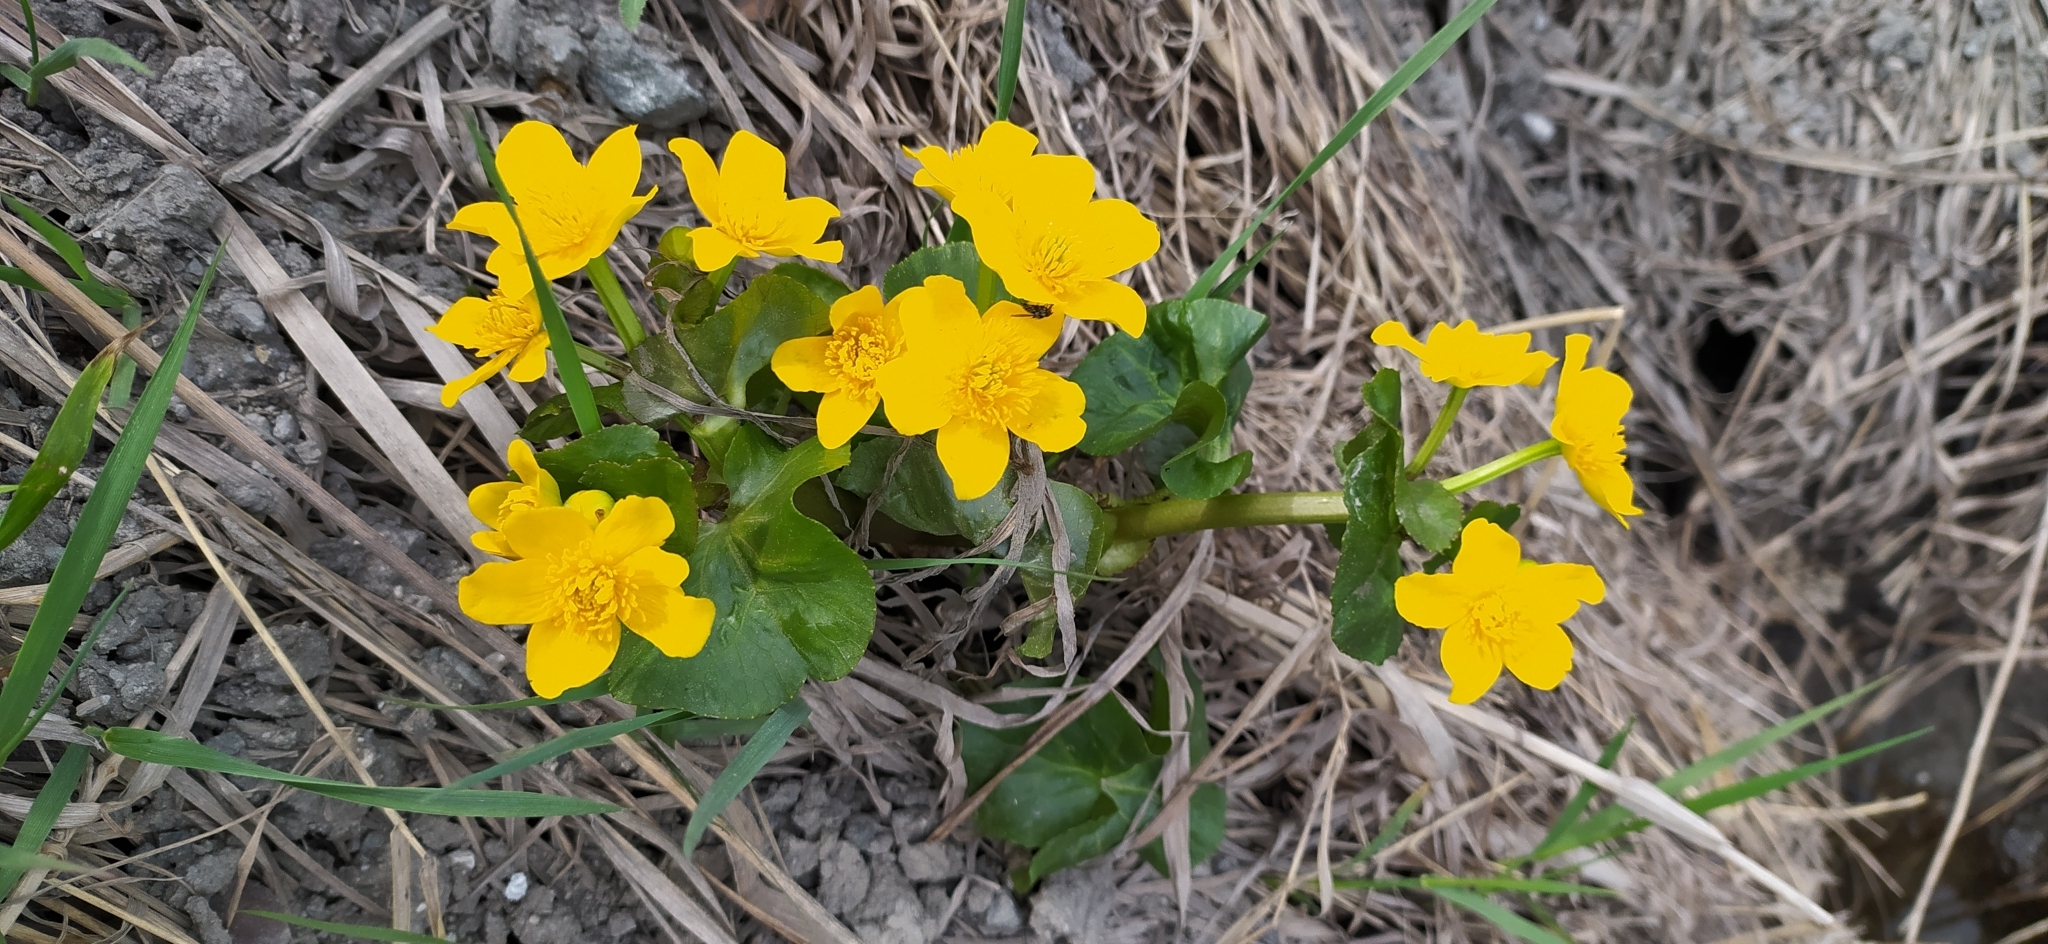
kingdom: Plantae
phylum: Tracheophyta
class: Magnoliopsida
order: Ranunculales
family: Ranunculaceae
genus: Caltha
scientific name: Caltha palustris
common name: Marsh marigold
